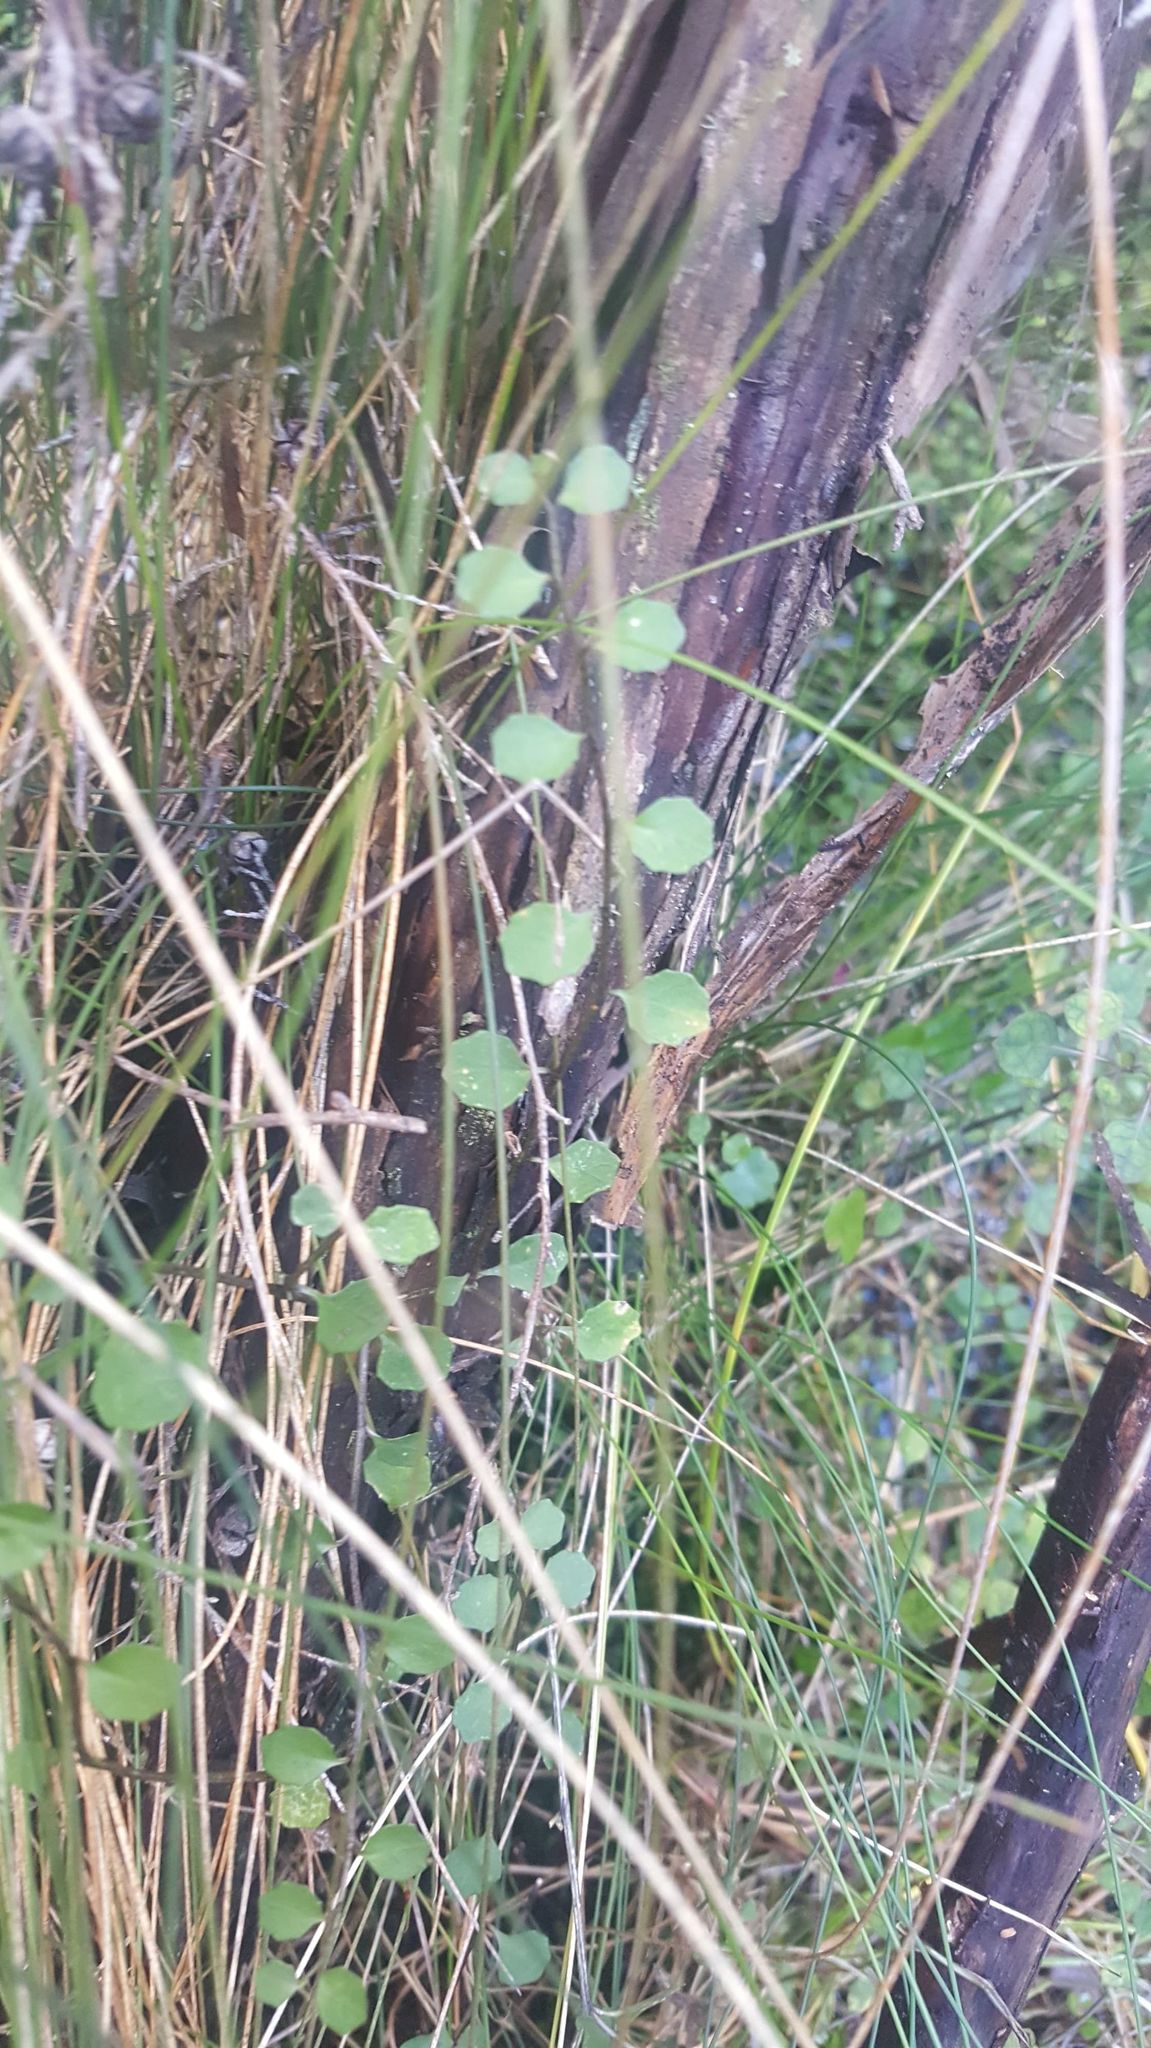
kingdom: Plantae
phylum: Tracheophyta
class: Magnoliopsida
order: Asterales
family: Campanulaceae
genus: Lobelia
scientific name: Lobelia angulata
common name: Lawn lobelia
